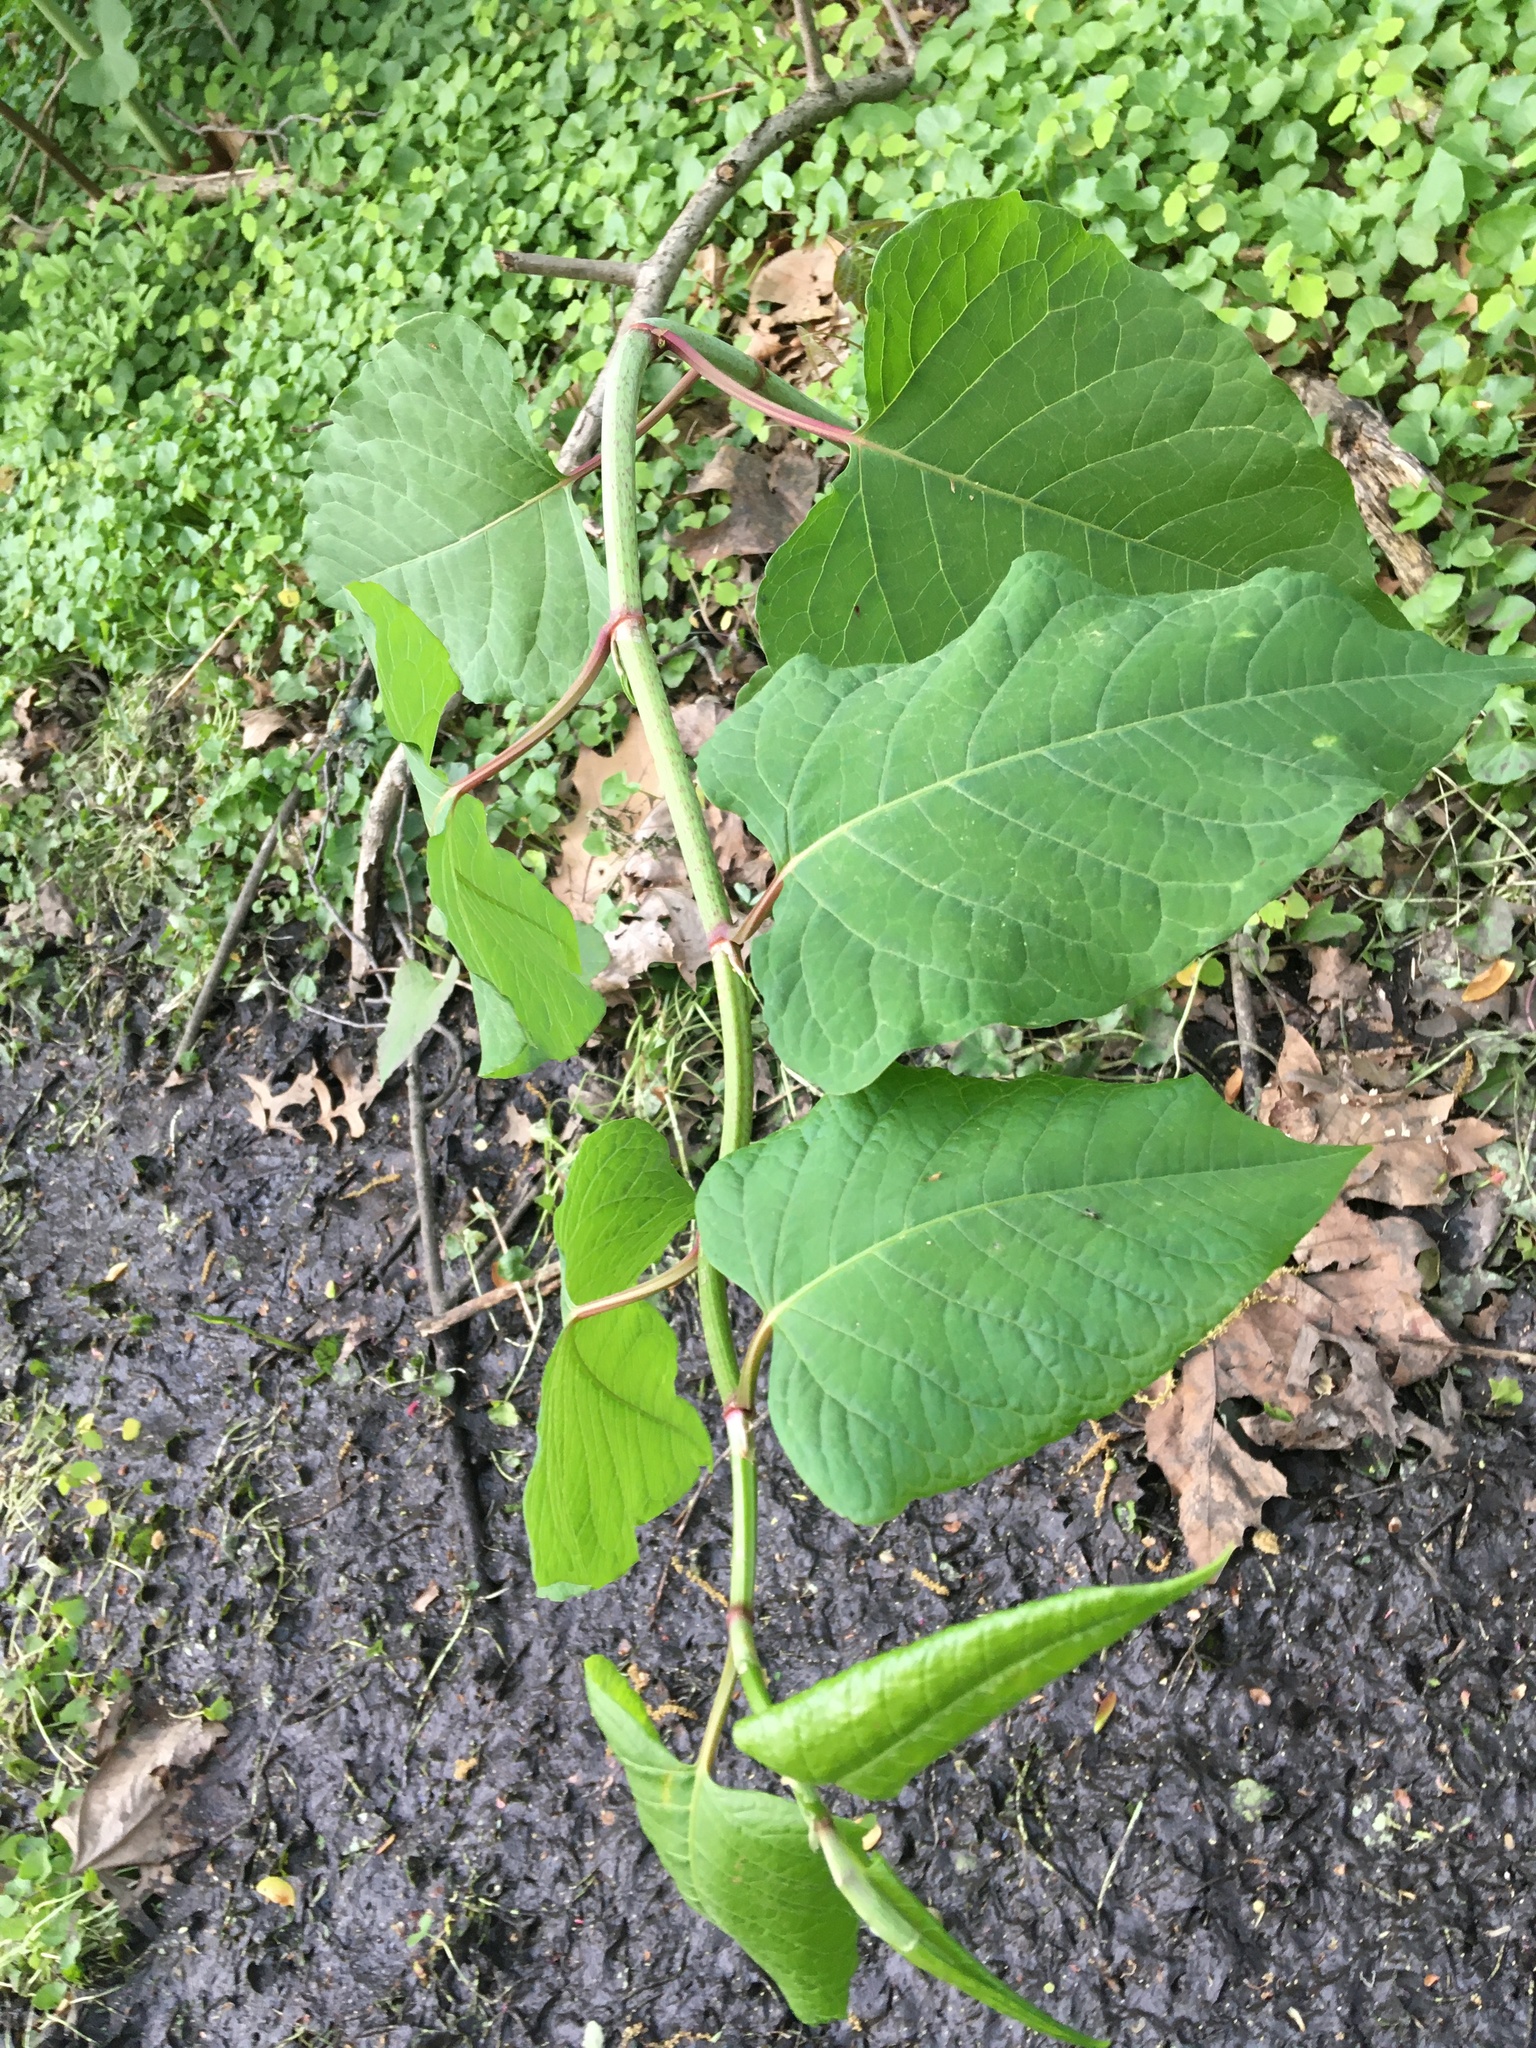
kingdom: Plantae
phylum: Tracheophyta
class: Magnoliopsida
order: Caryophyllales
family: Polygonaceae
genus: Reynoutria
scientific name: Reynoutria sachalinensis
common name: Giant knotweed
